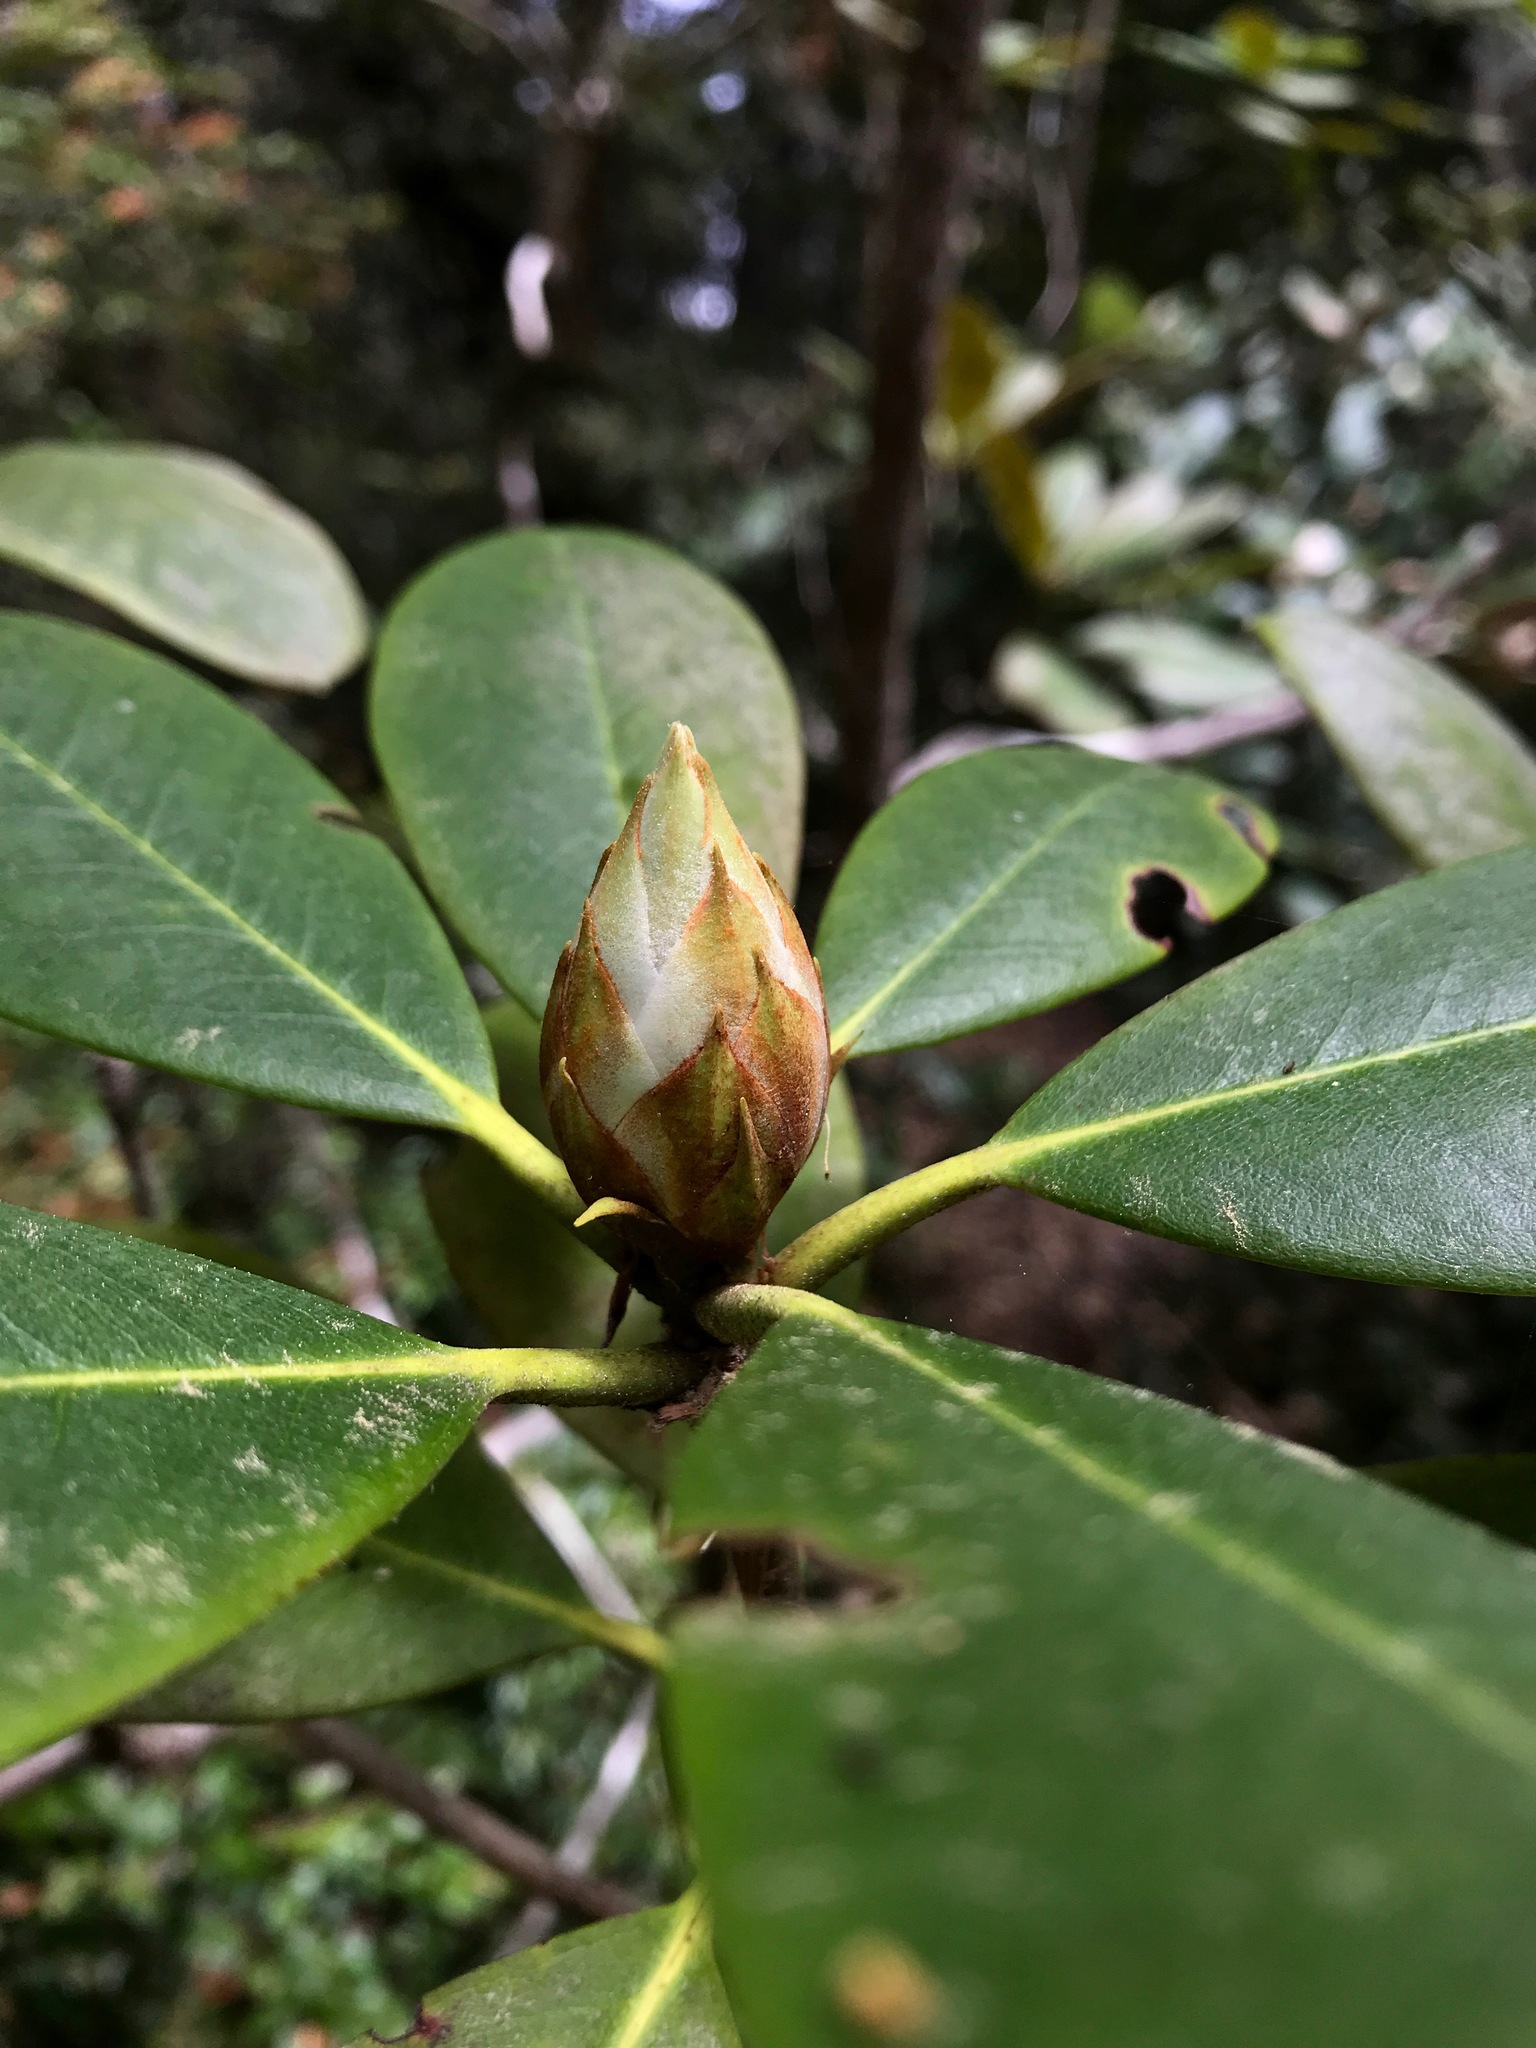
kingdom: Plantae
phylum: Tracheophyta
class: Magnoliopsida
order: Ericales
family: Ericaceae
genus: Rhododendron
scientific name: Rhododendron macrophyllum
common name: California rose bay
